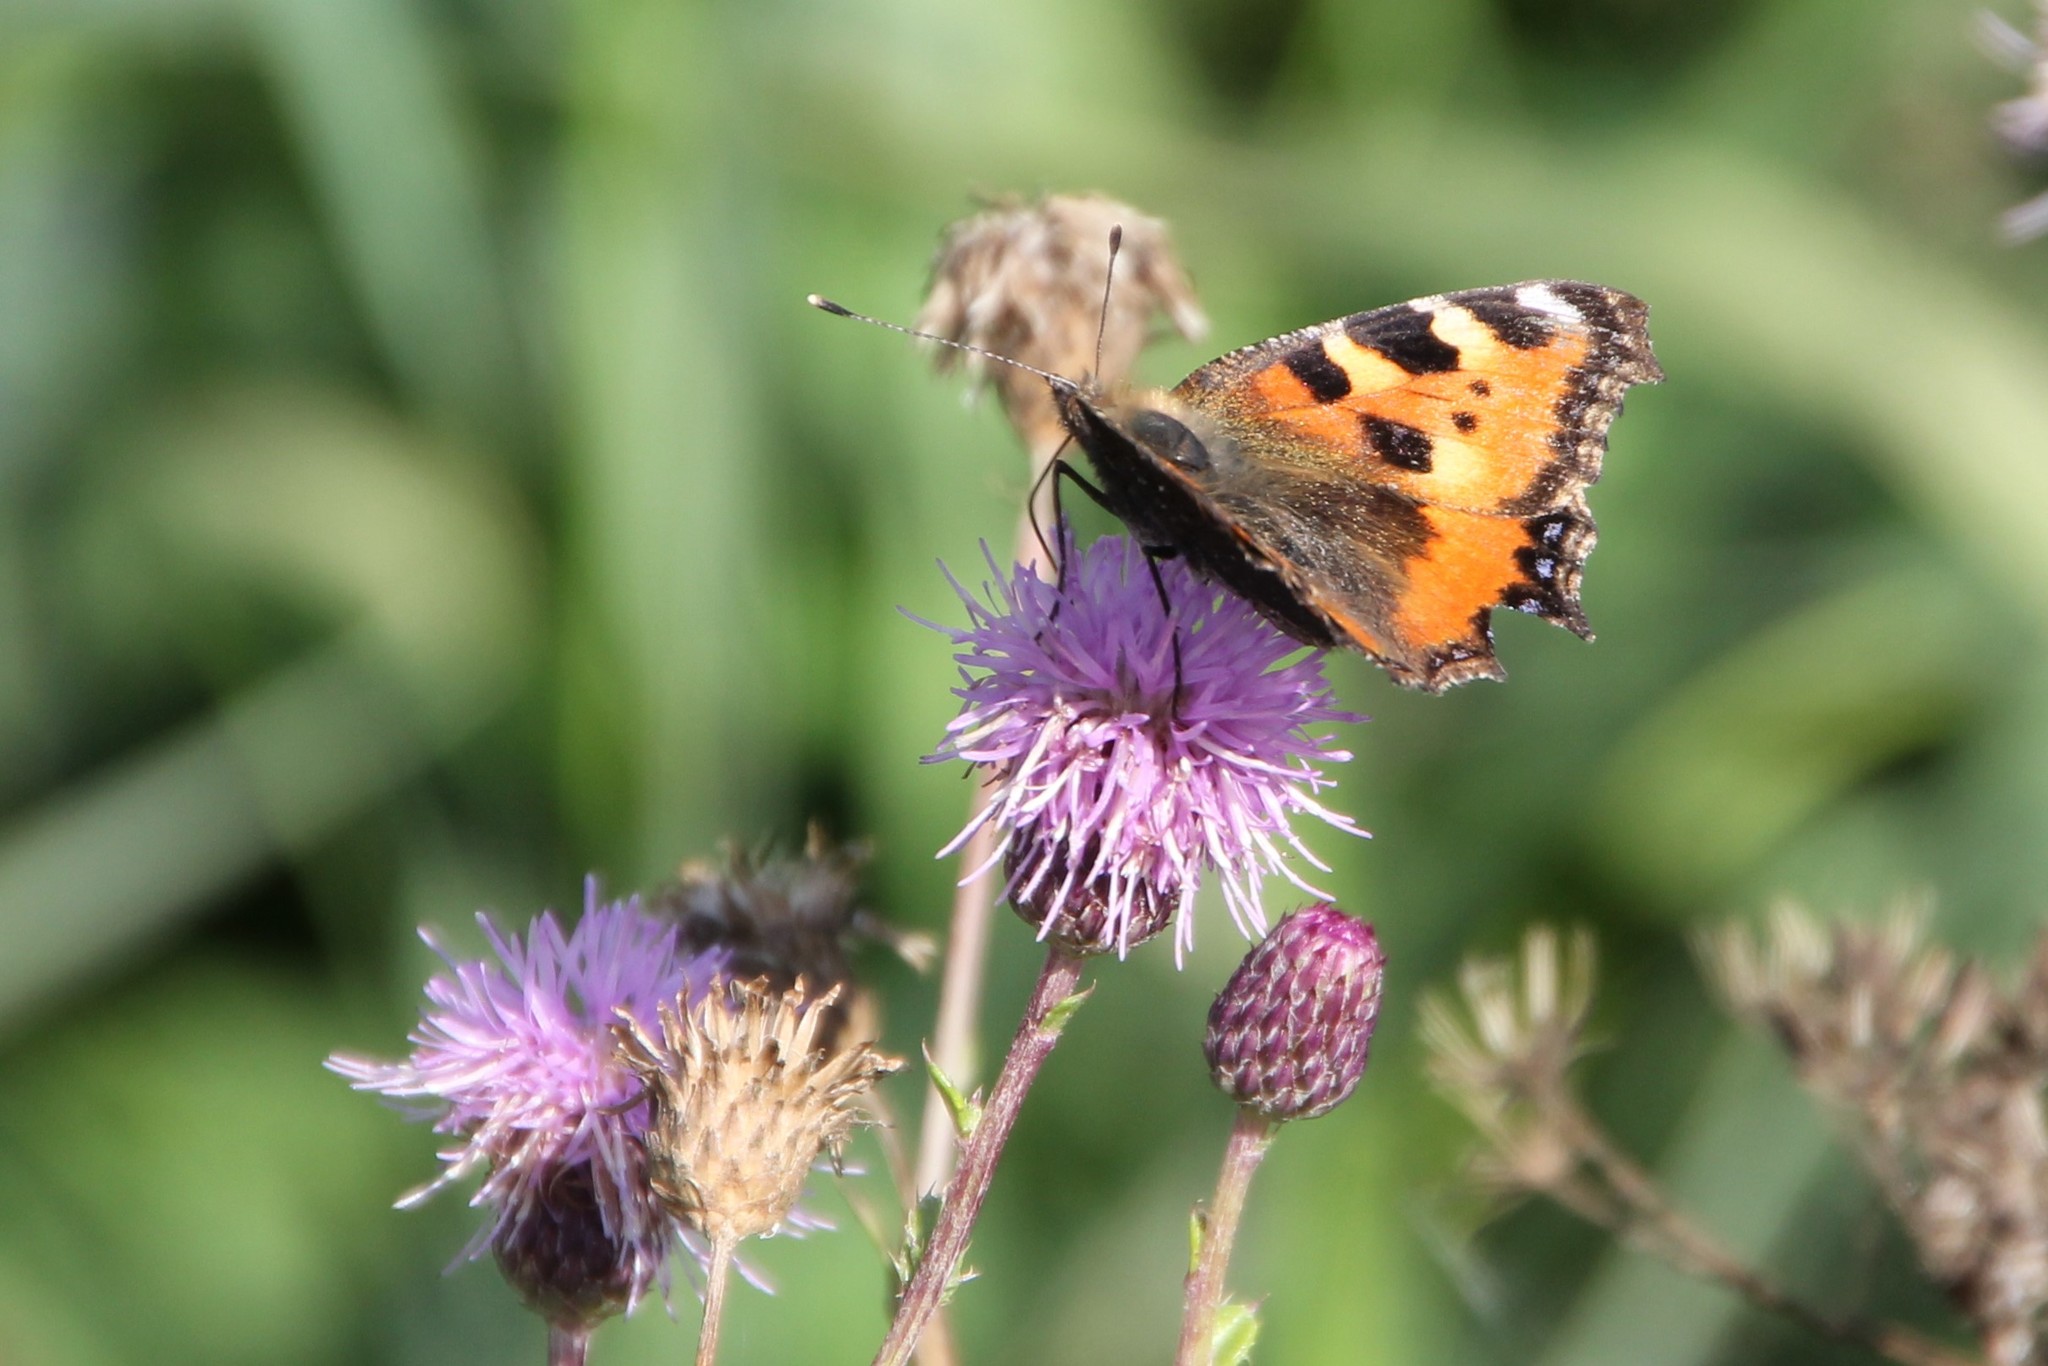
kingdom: Animalia
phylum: Arthropoda
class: Insecta
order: Lepidoptera
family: Nymphalidae
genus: Aglais
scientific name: Aglais urticae
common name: Small tortoiseshell
